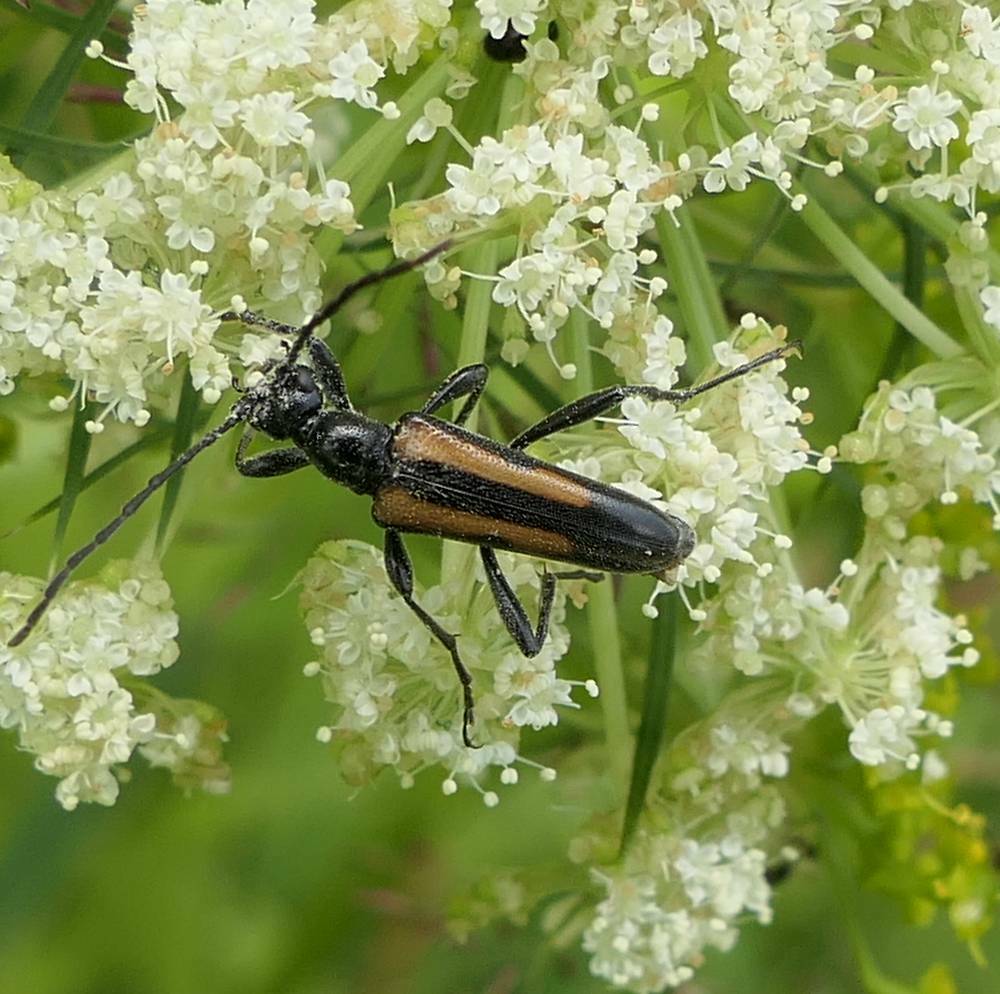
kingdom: Animalia
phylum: Arthropoda
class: Insecta
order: Coleoptera
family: Cerambycidae
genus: Strangalepta
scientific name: Strangalepta abbreviata
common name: Strangalepta flower longhorn beetle
